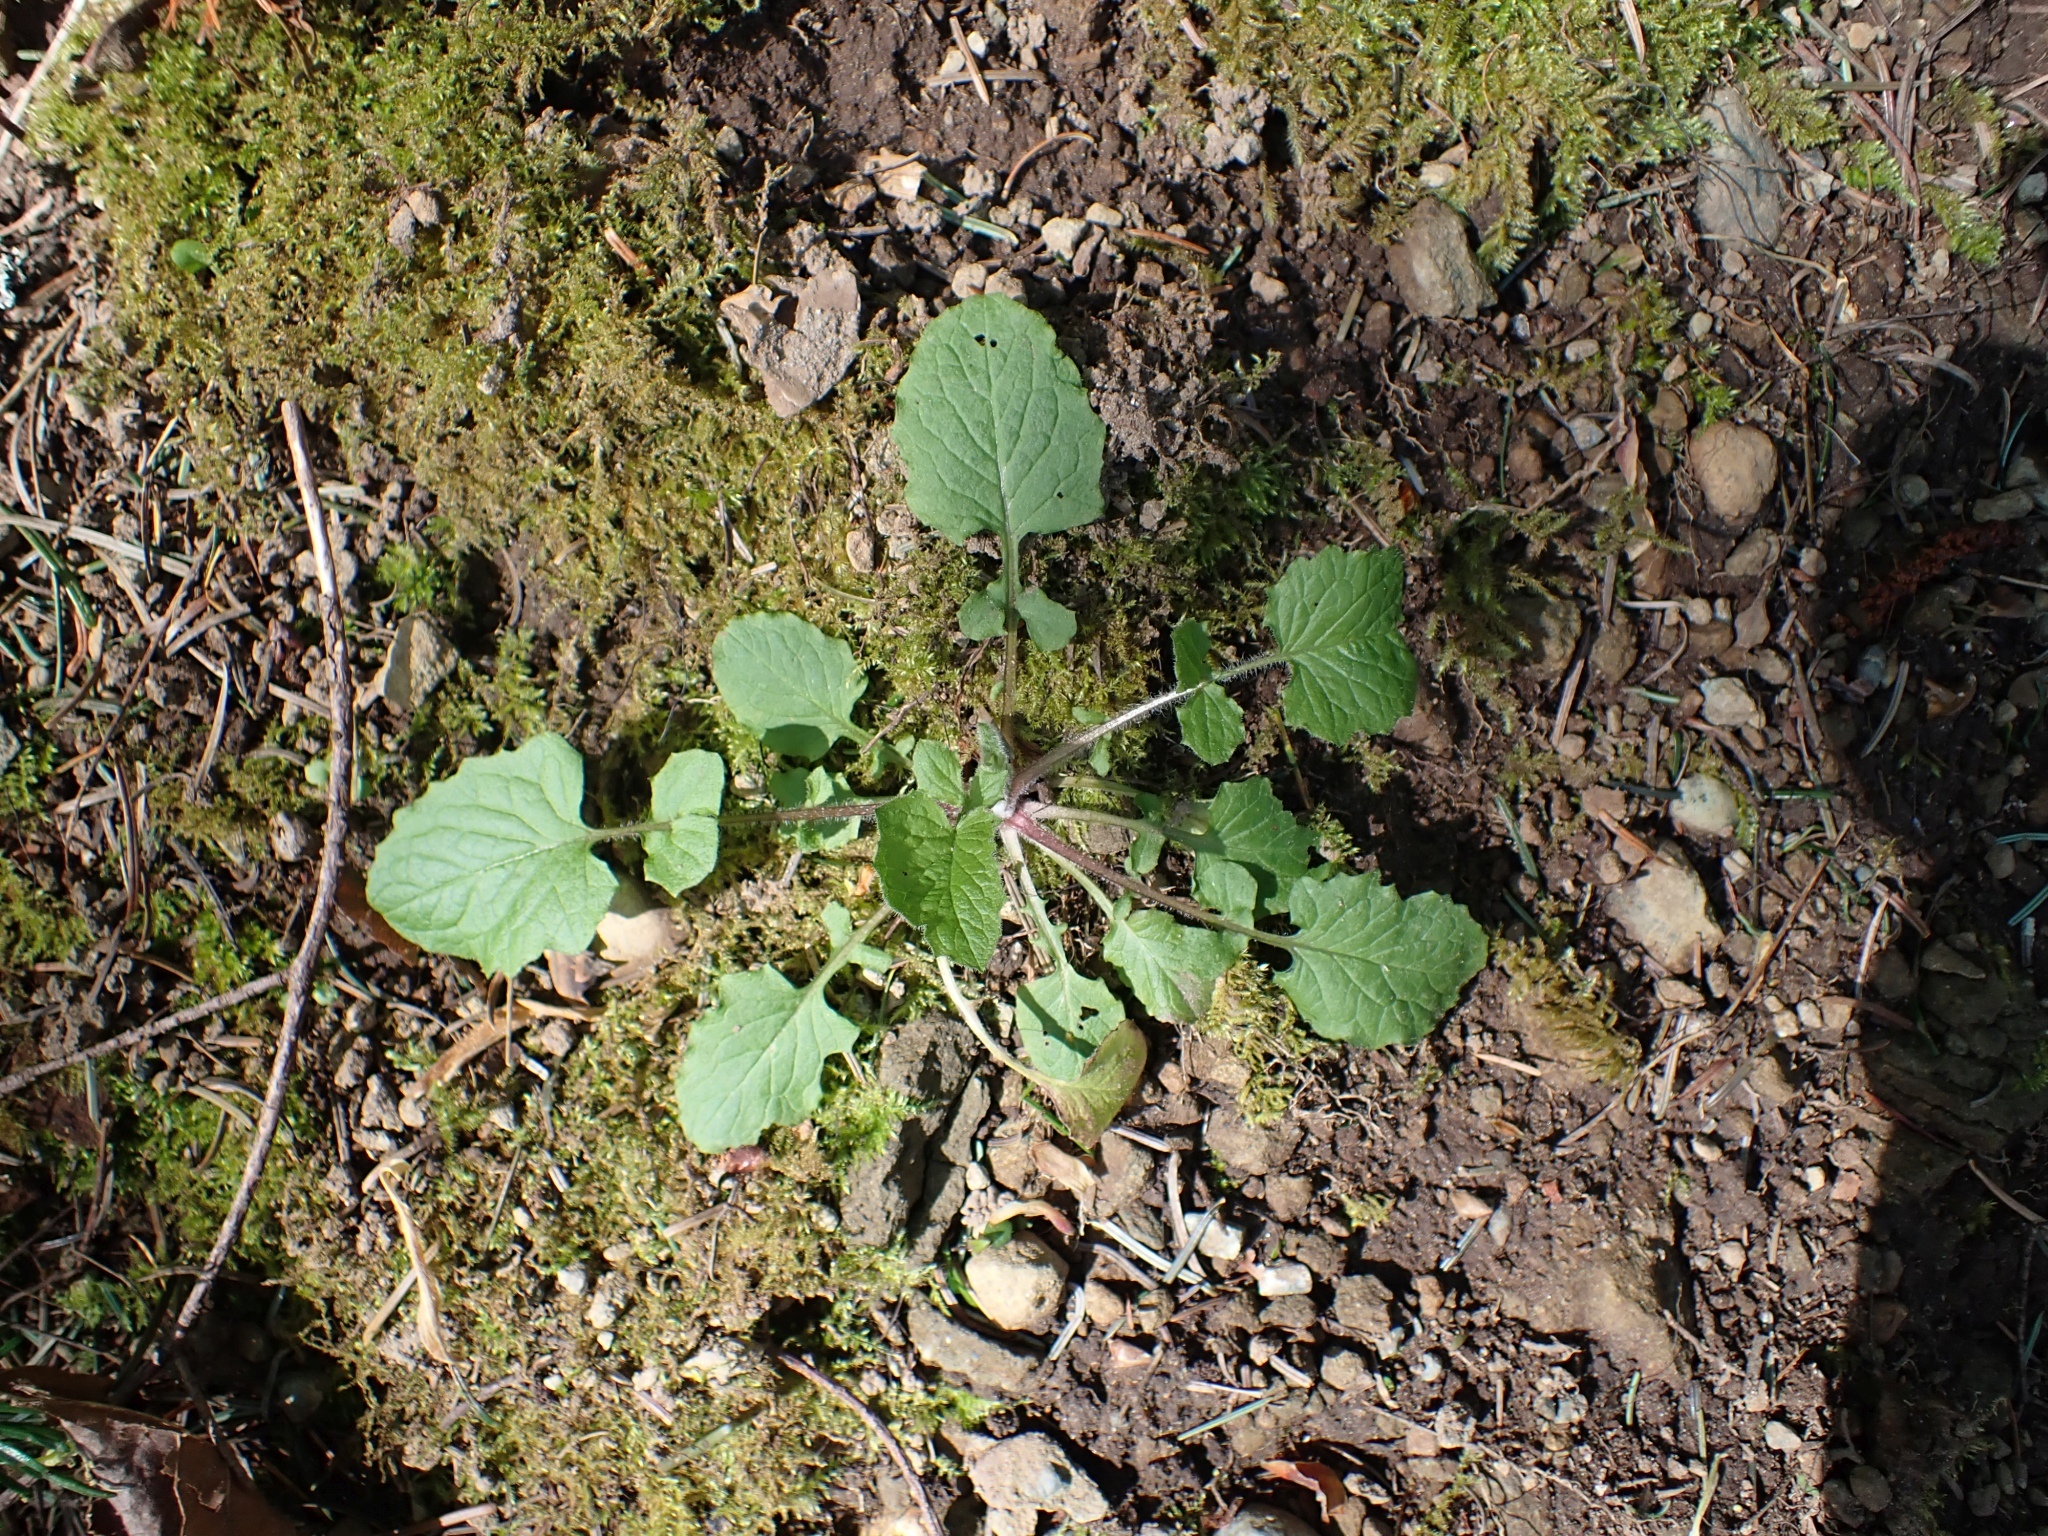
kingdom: Plantae
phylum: Tracheophyta
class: Magnoliopsida
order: Asterales
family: Asteraceae
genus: Lapsana
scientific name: Lapsana communis
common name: Nipplewort
